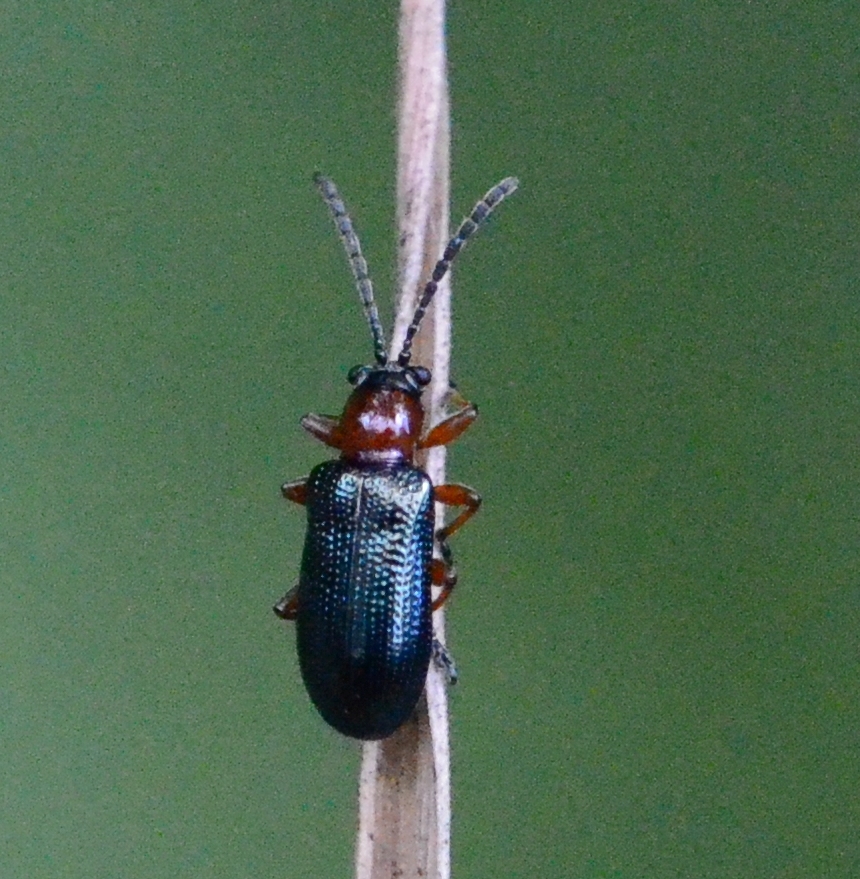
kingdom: Animalia
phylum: Arthropoda
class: Insecta
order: Coleoptera
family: Chrysomelidae
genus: Oulema
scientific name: Oulema
